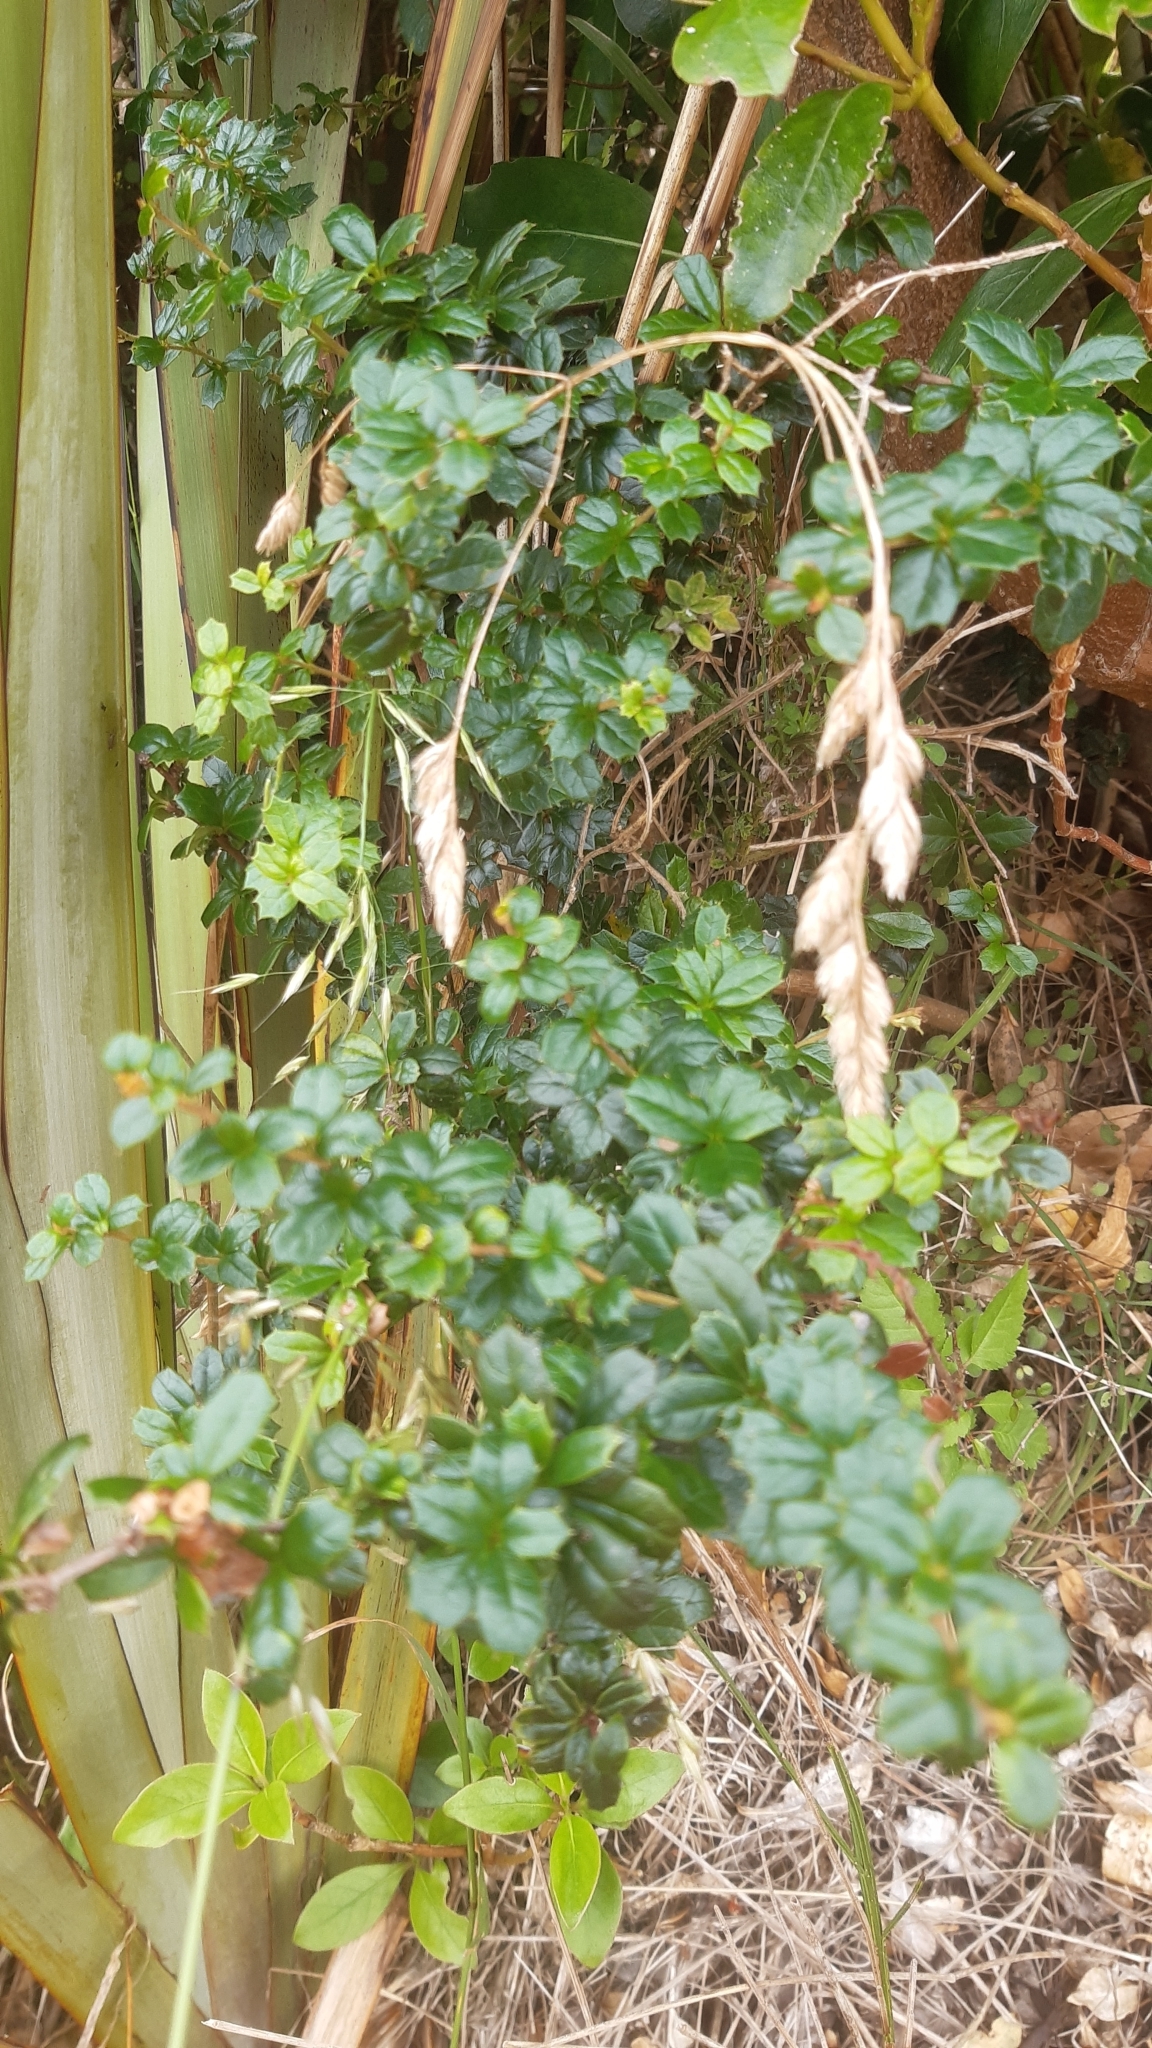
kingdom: Plantae
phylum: Tracheophyta
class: Magnoliopsida
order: Ranunculales
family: Berberidaceae
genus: Berberis
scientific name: Berberis darwinii
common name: Darwin's barberry
